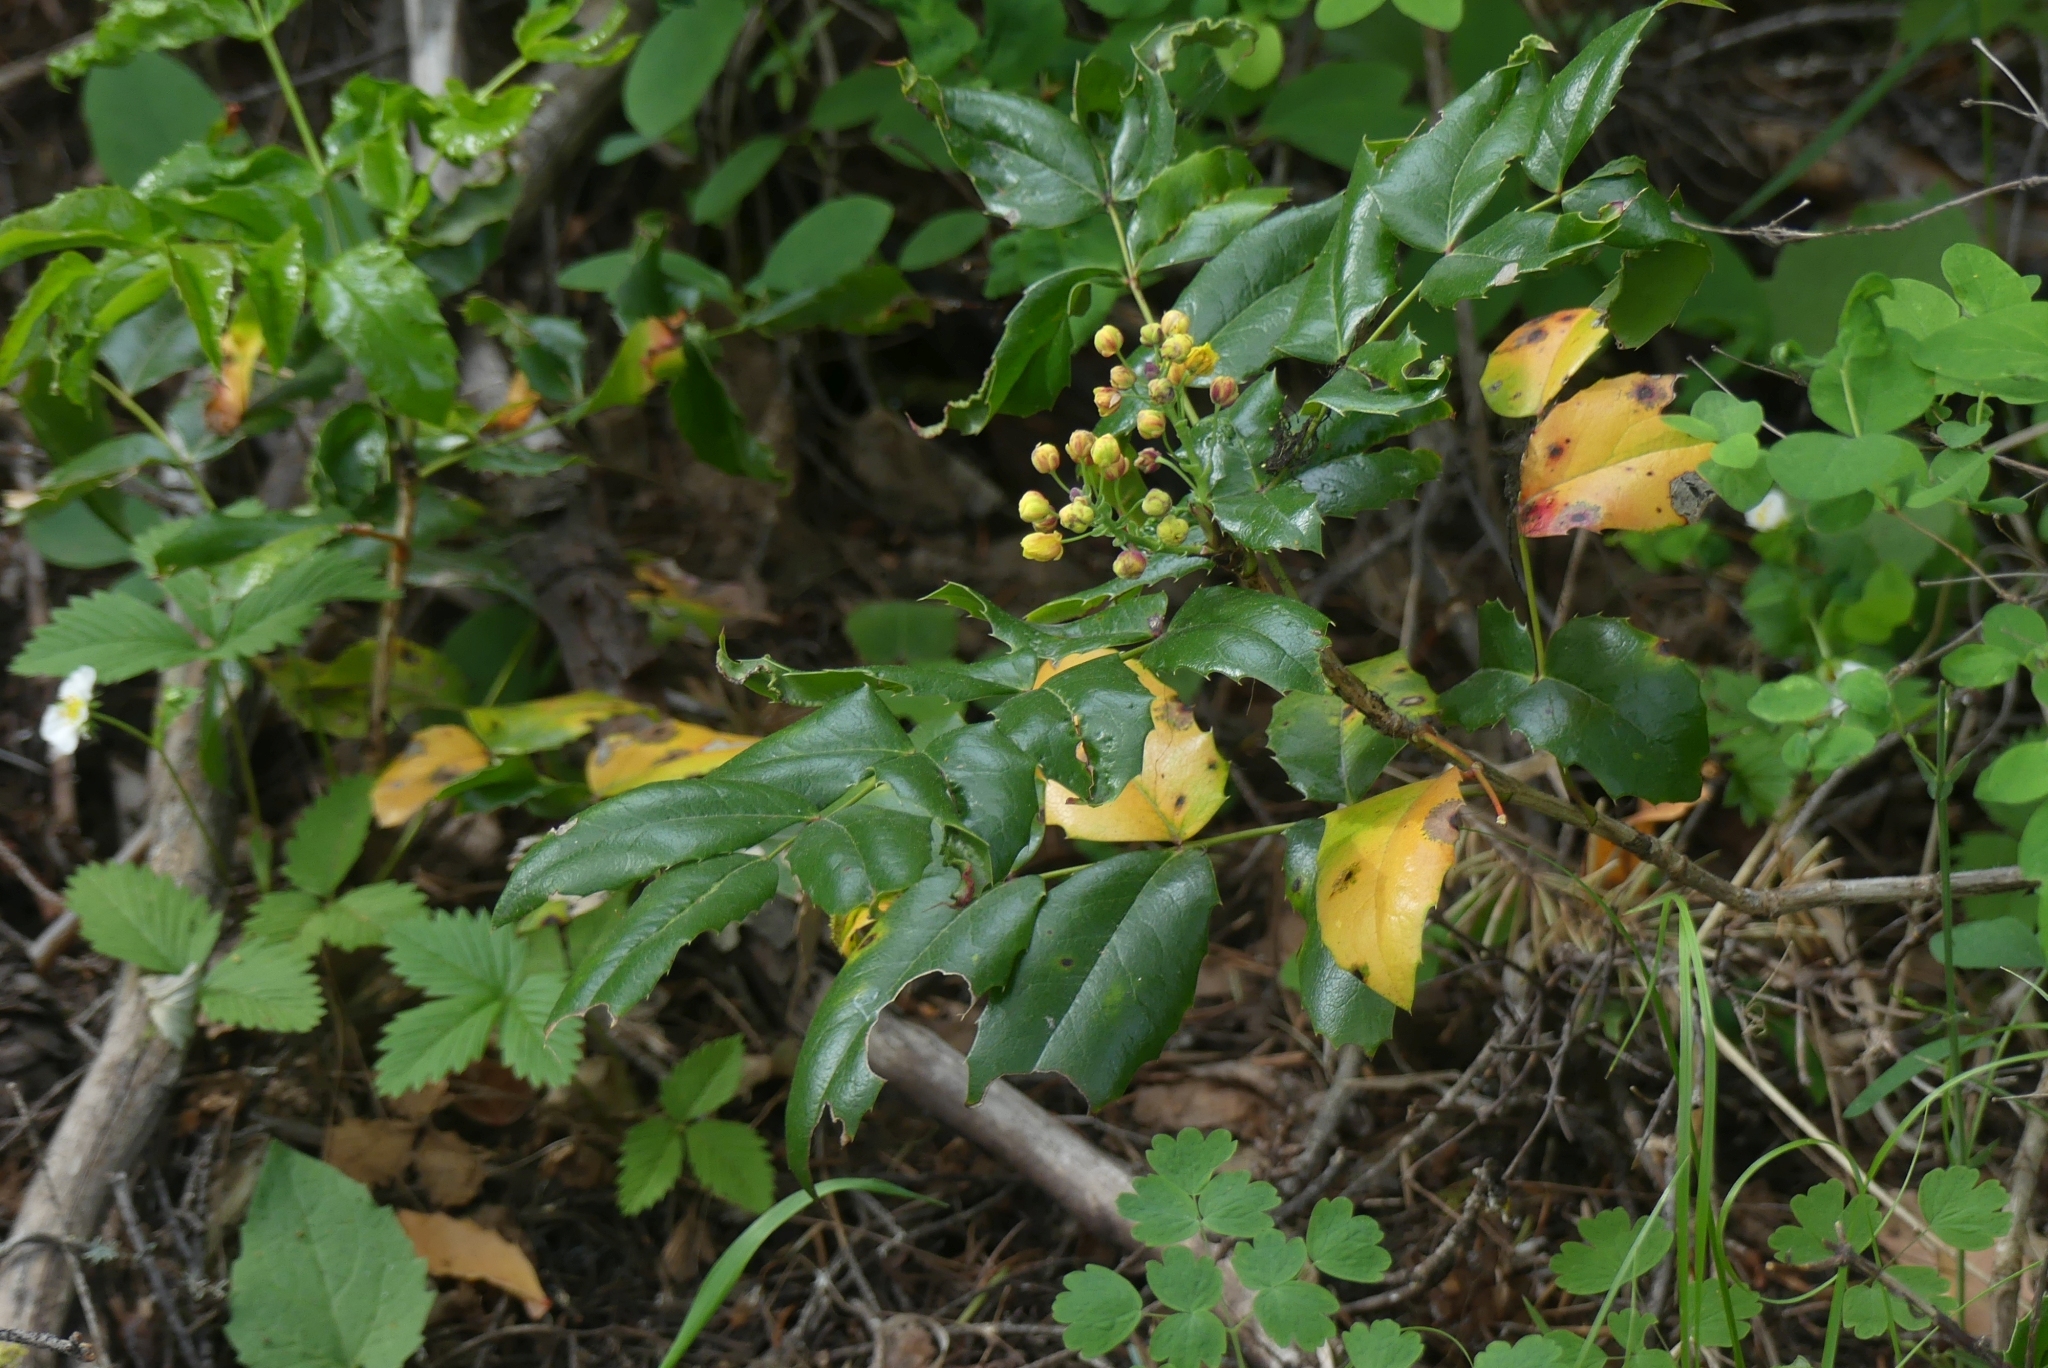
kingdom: Plantae
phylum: Tracheophyta
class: Magnoliopsida
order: Ranunculales
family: Berberidaceae
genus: Mahonia
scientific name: Mahonia aquifolium
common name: Oregon-grape
